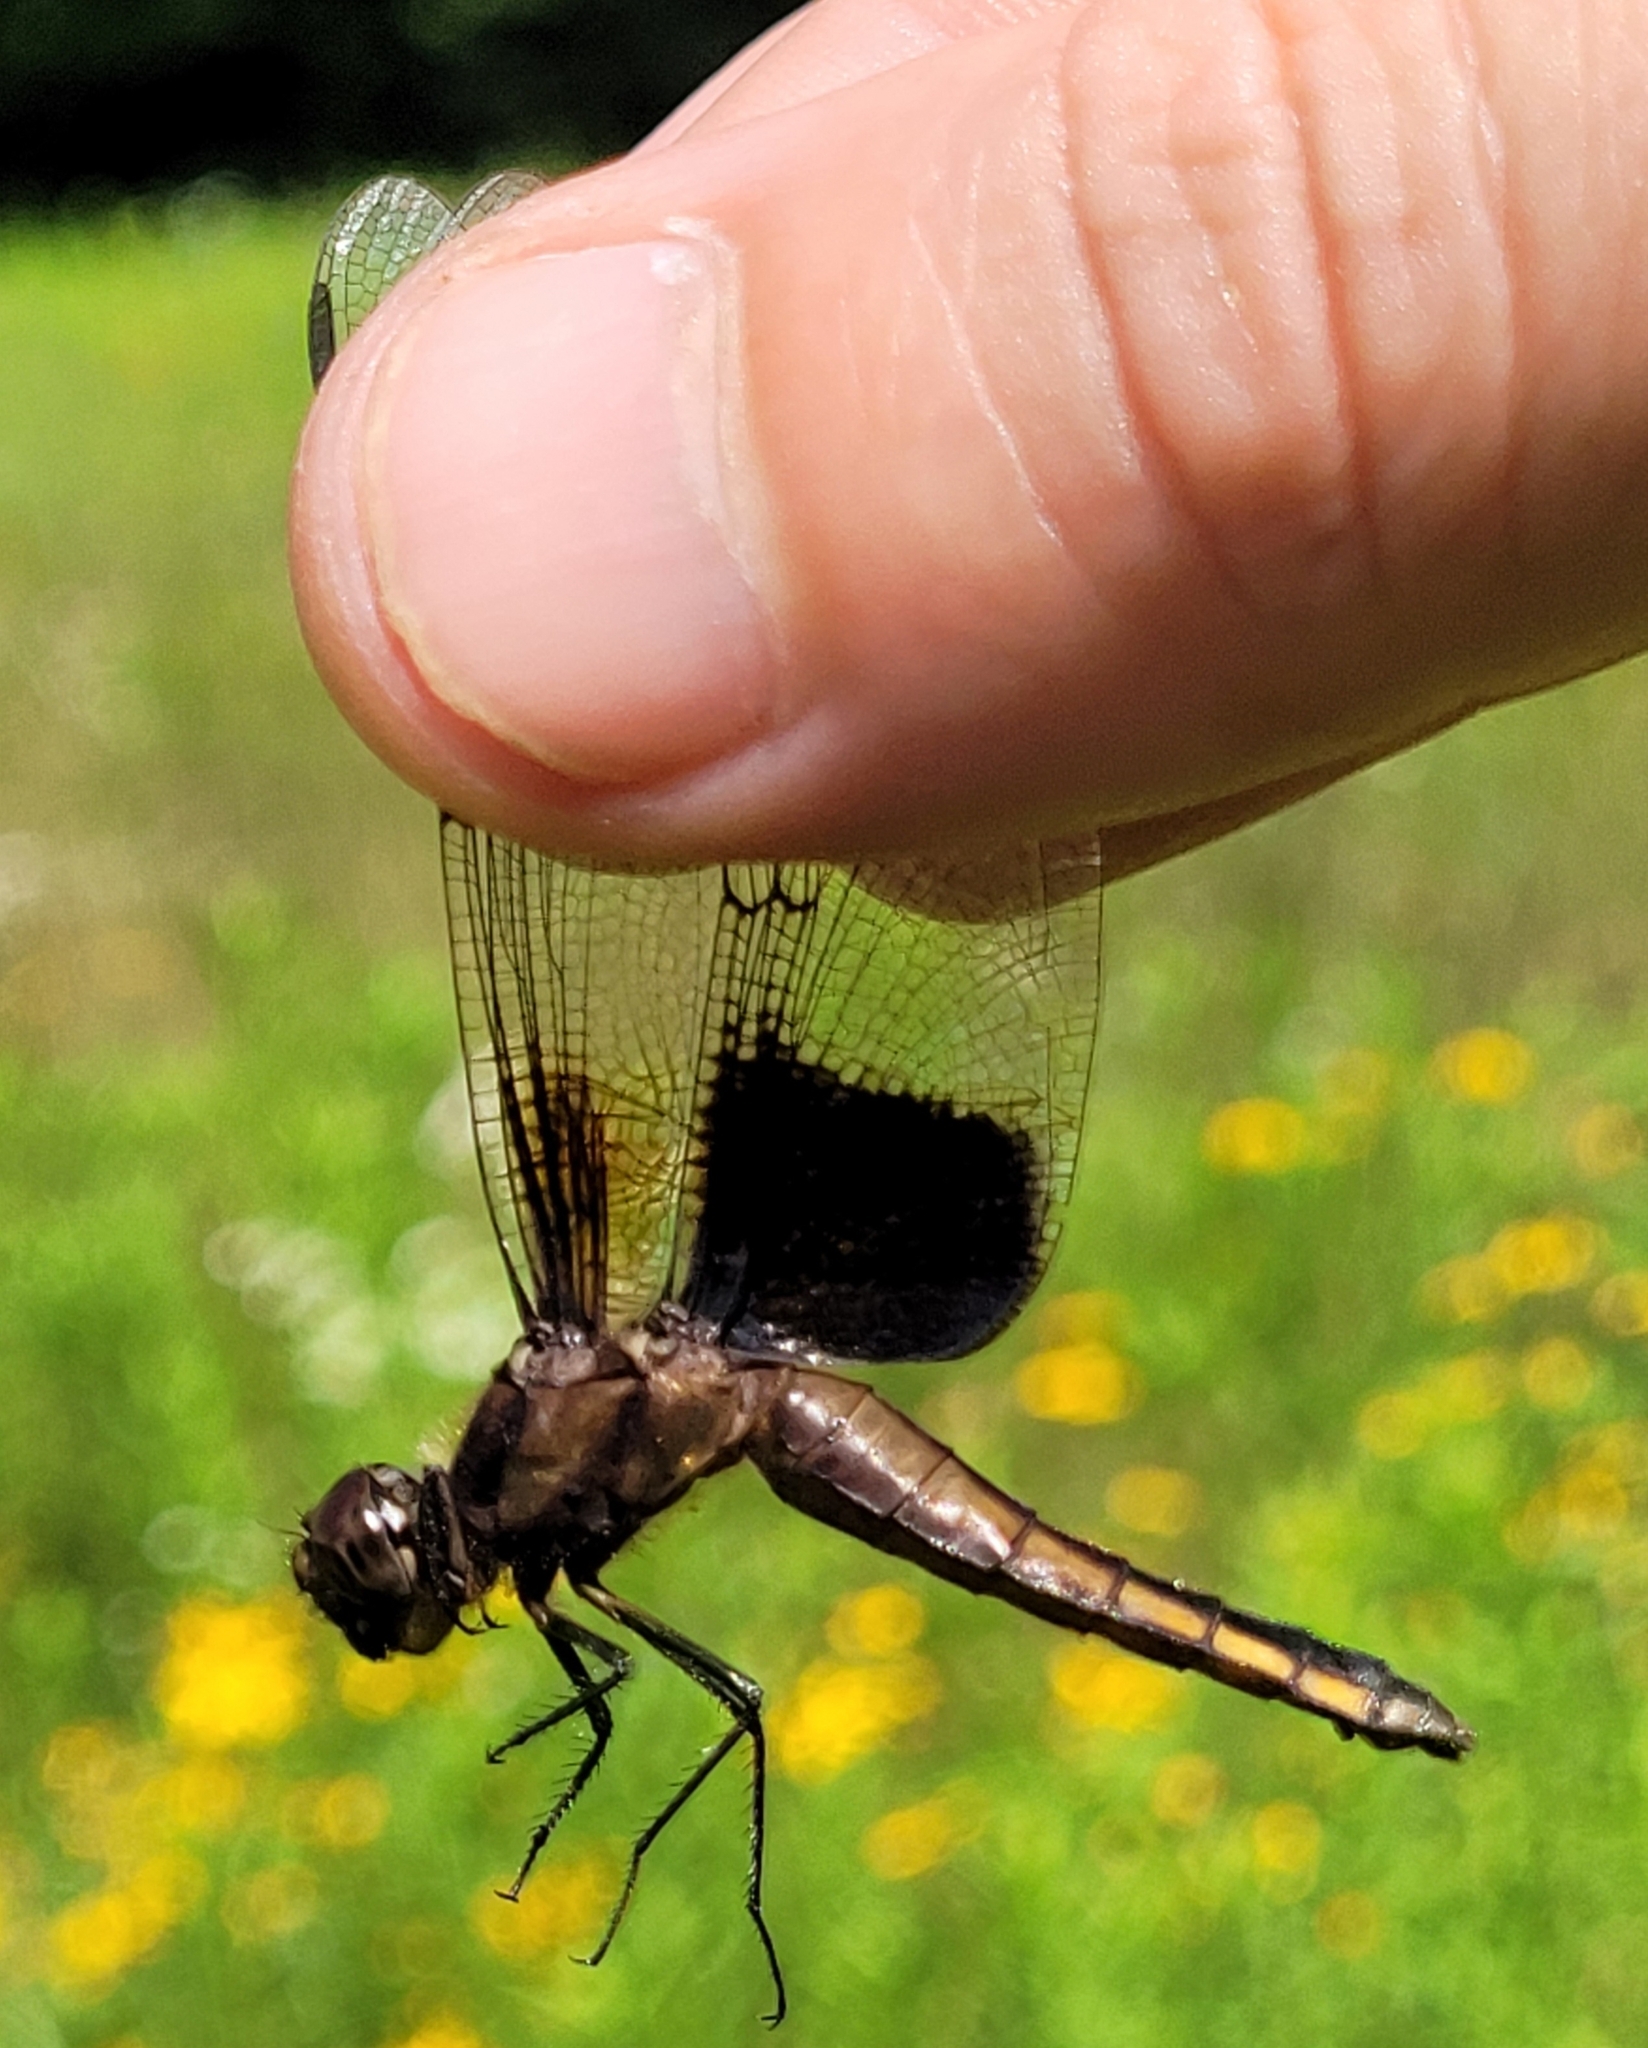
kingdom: Animalia
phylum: Arthropoda
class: Insecta
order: Odonata
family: Libellulidae
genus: Libellula
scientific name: Libellula luctuosa
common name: Widow skimmer
